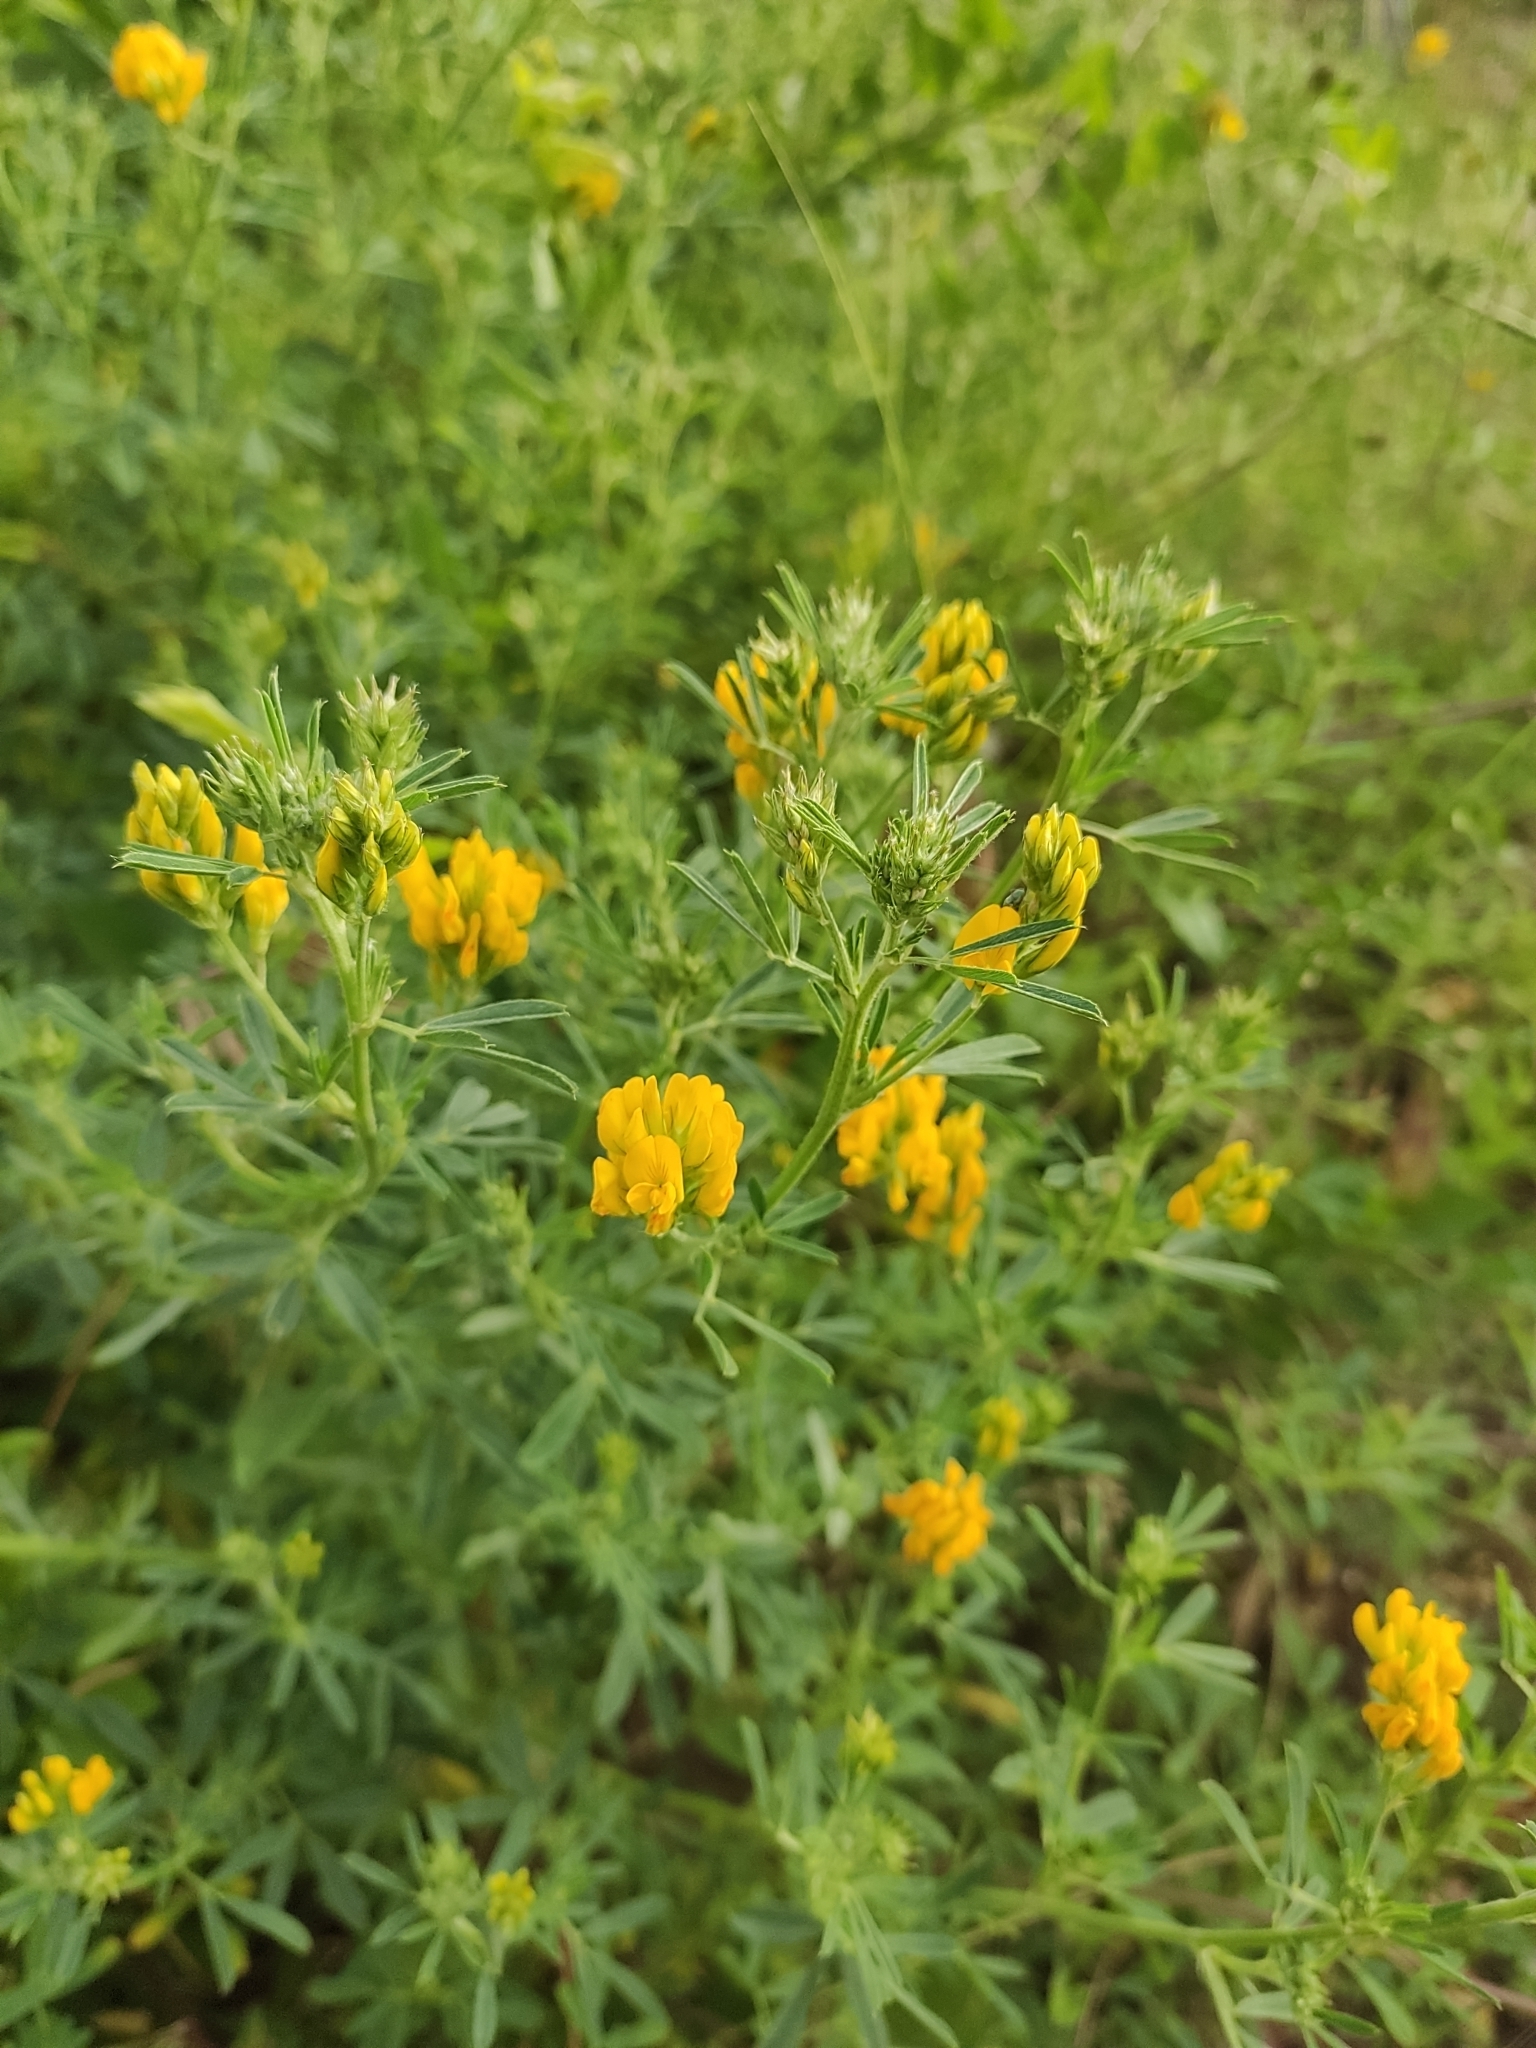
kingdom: Plantae
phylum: Tracheophyta
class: Magnoliopsida
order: Fabales
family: Fabaceae
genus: Medicago
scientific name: Medicago falcata
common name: Sickle medick
